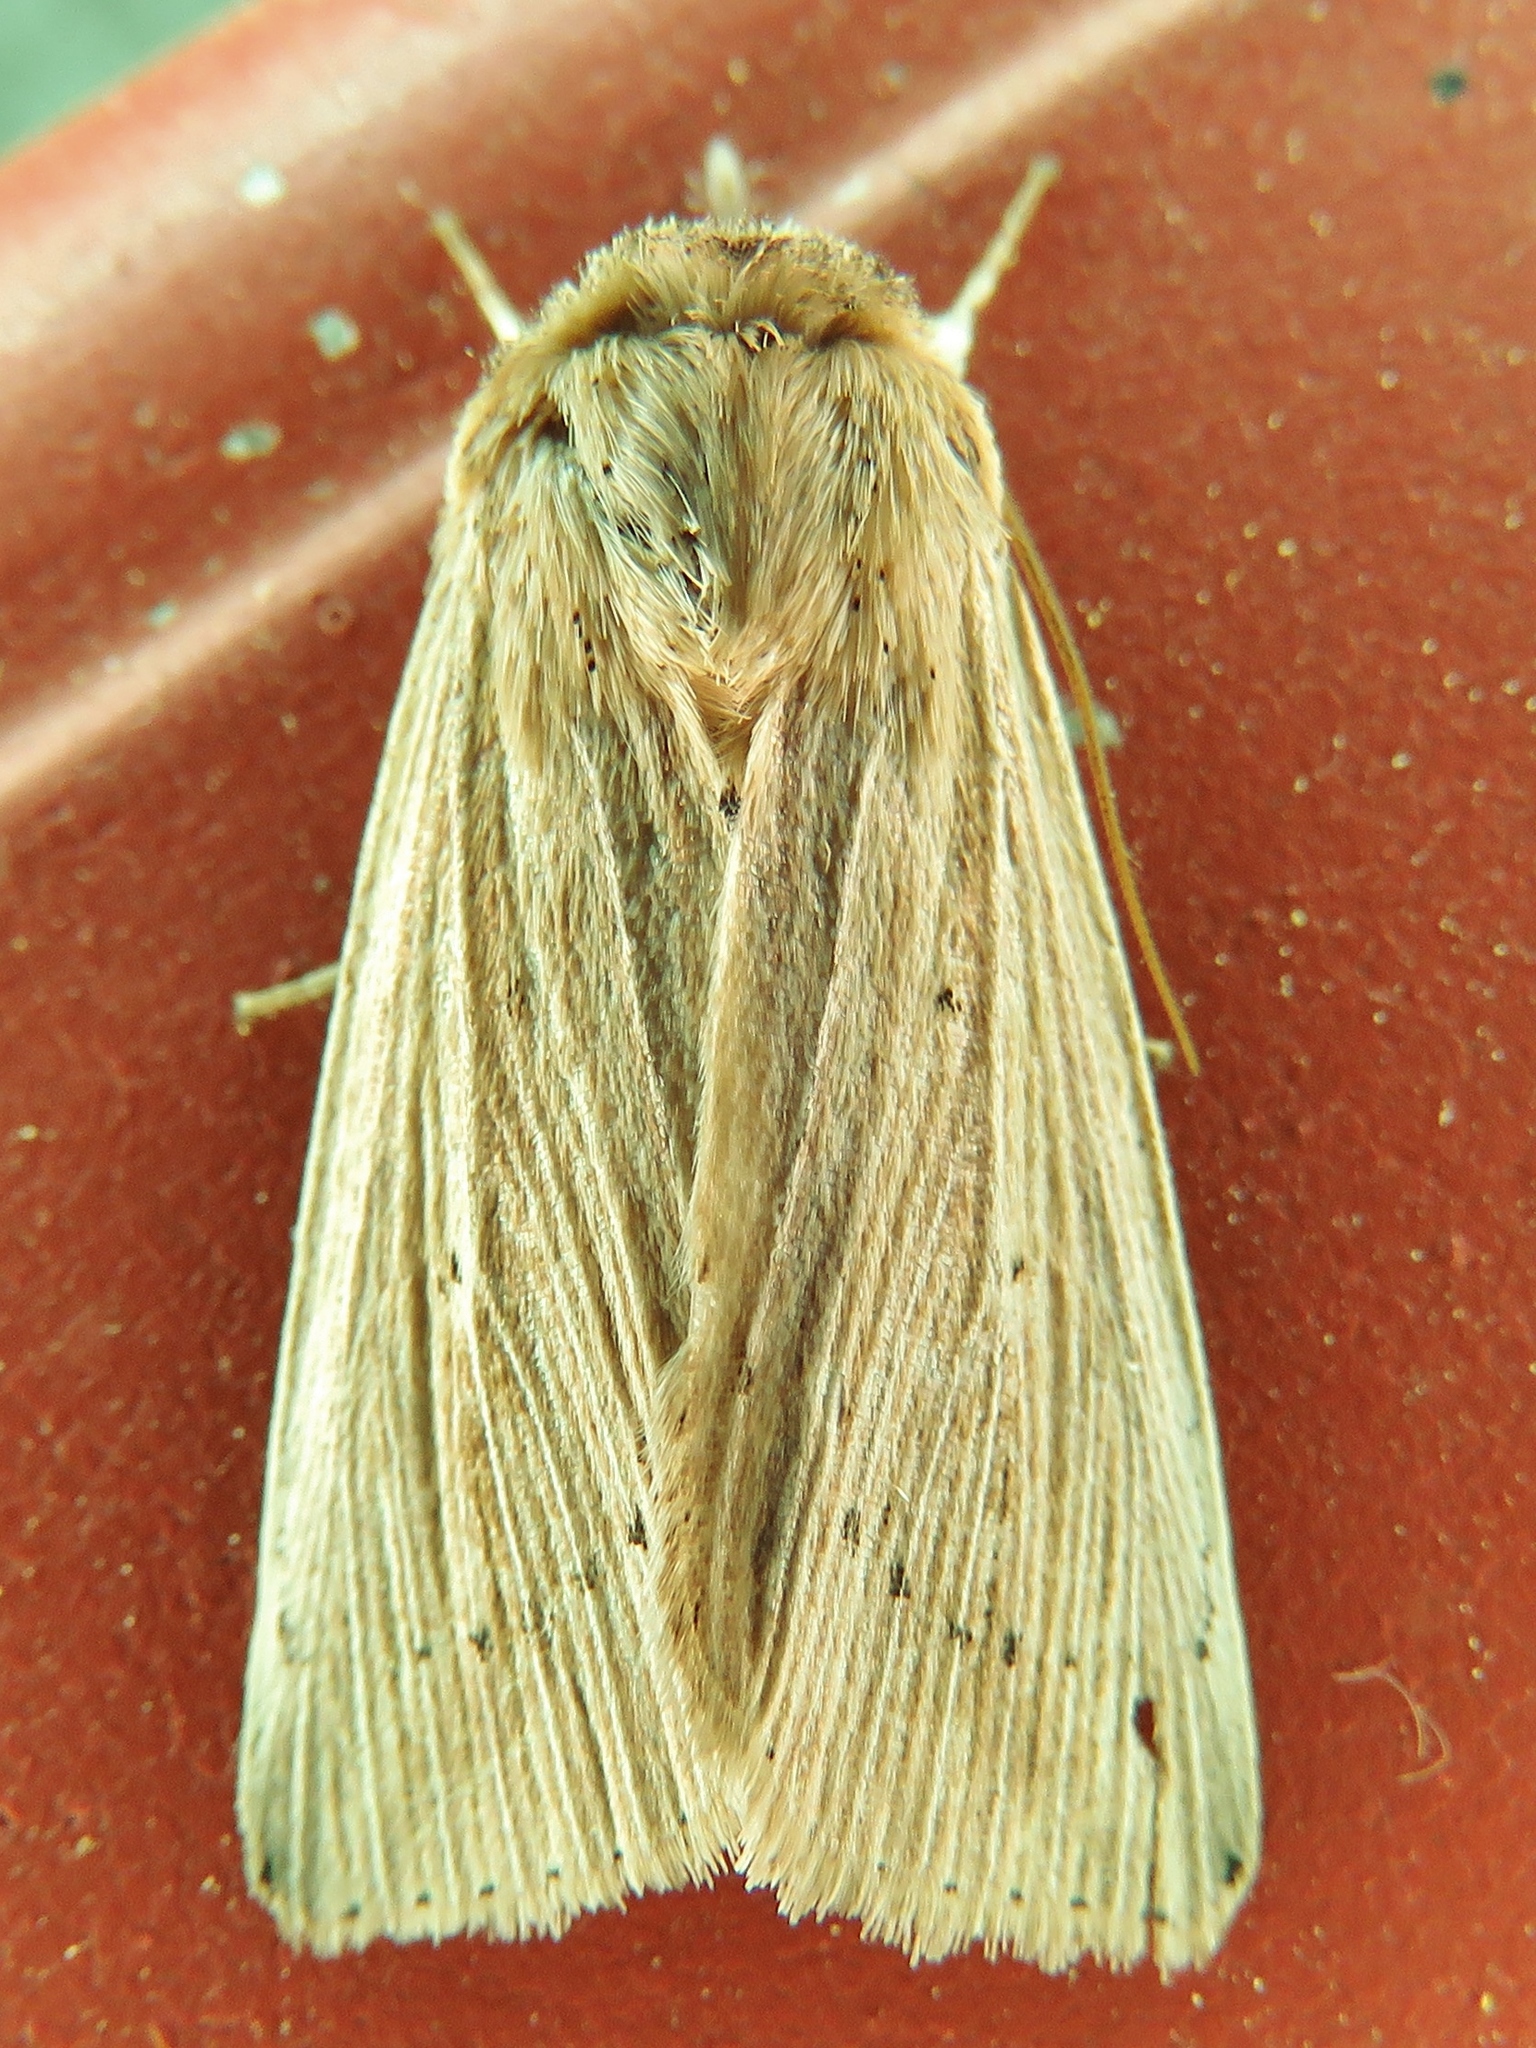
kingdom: Animalia
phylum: Arthropoda
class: Insecta
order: Lepidoptera
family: Noctuidae
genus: Leucania
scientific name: Leucania adjuta
